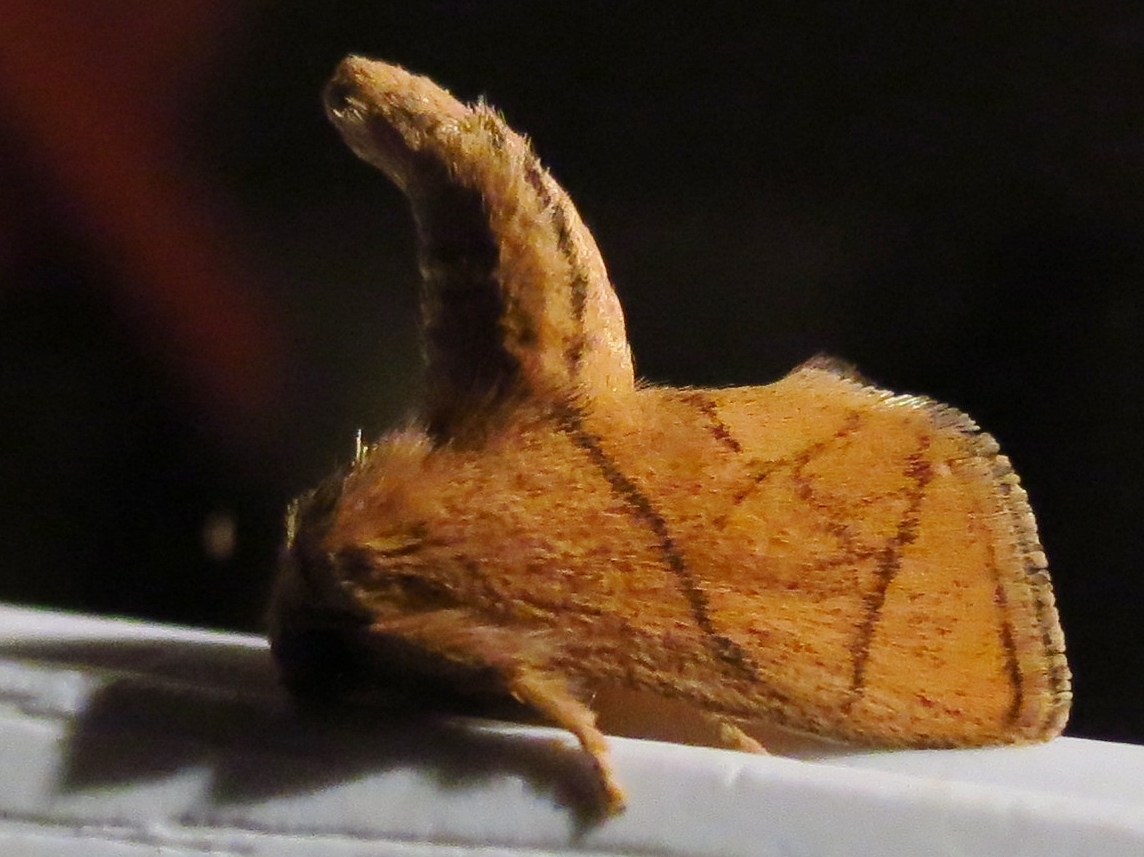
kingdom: Animalia
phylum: Arthropoda
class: Insecta
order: Lepidoptera
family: Limacodidae
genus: Apoda
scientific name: Apoda y-inversa
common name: Yellow-collared slug moth
